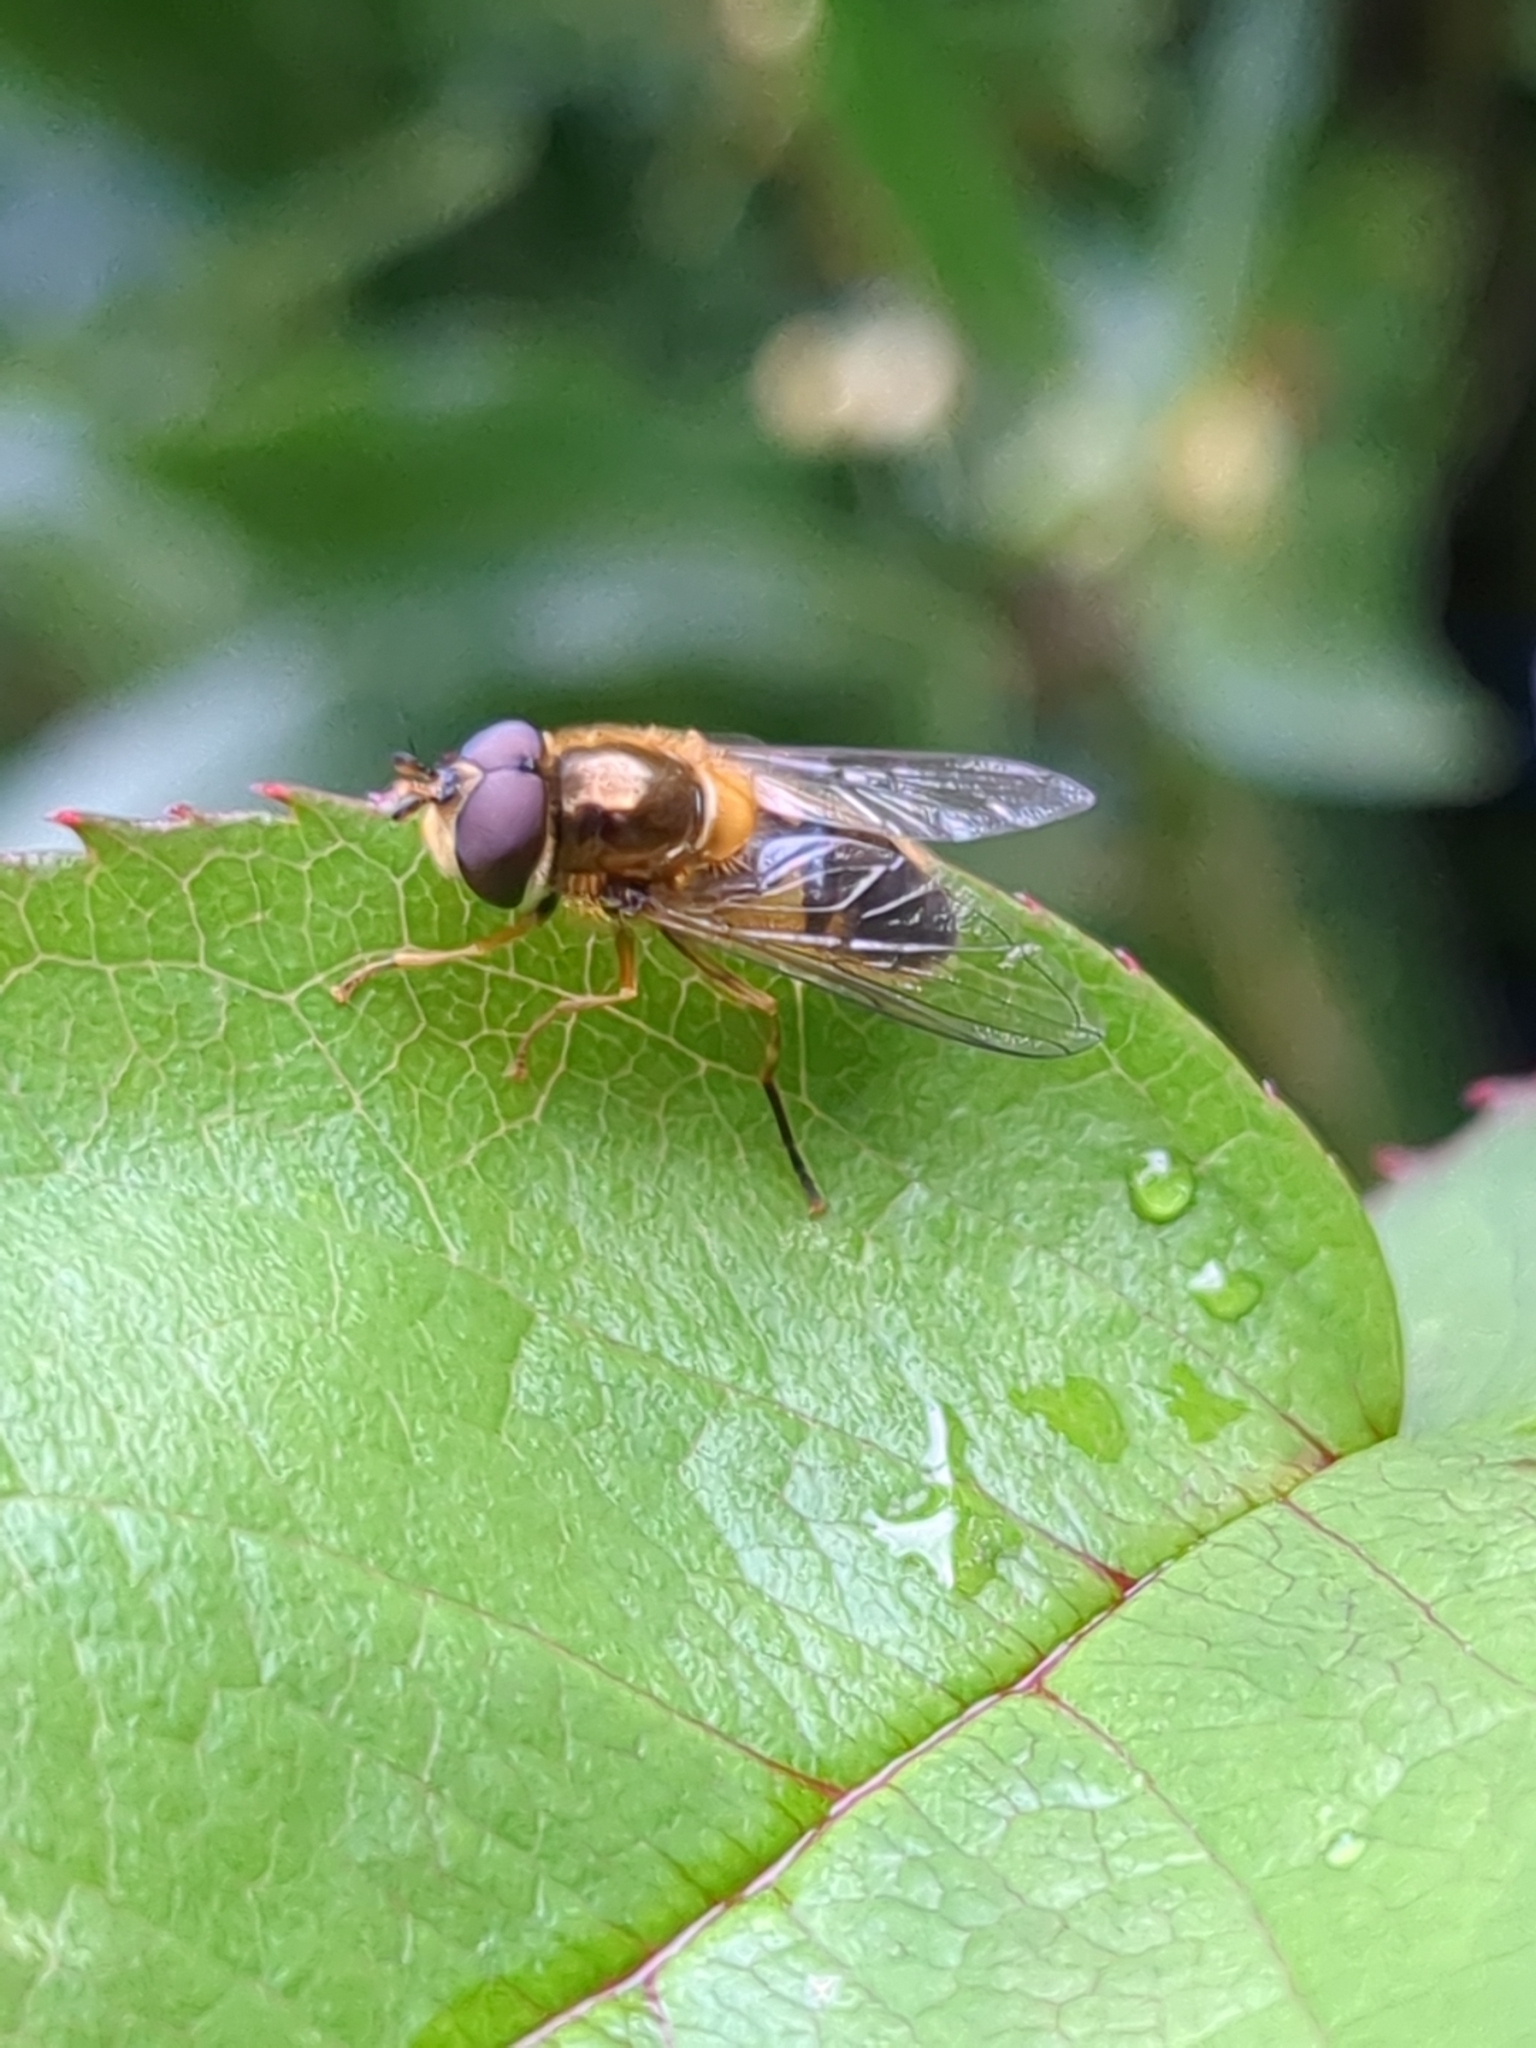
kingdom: Animalia
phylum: Arthropoda
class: Insecta
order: Diptera
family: Syrphidae
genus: Epistrophe
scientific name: Epistrophe eligans
